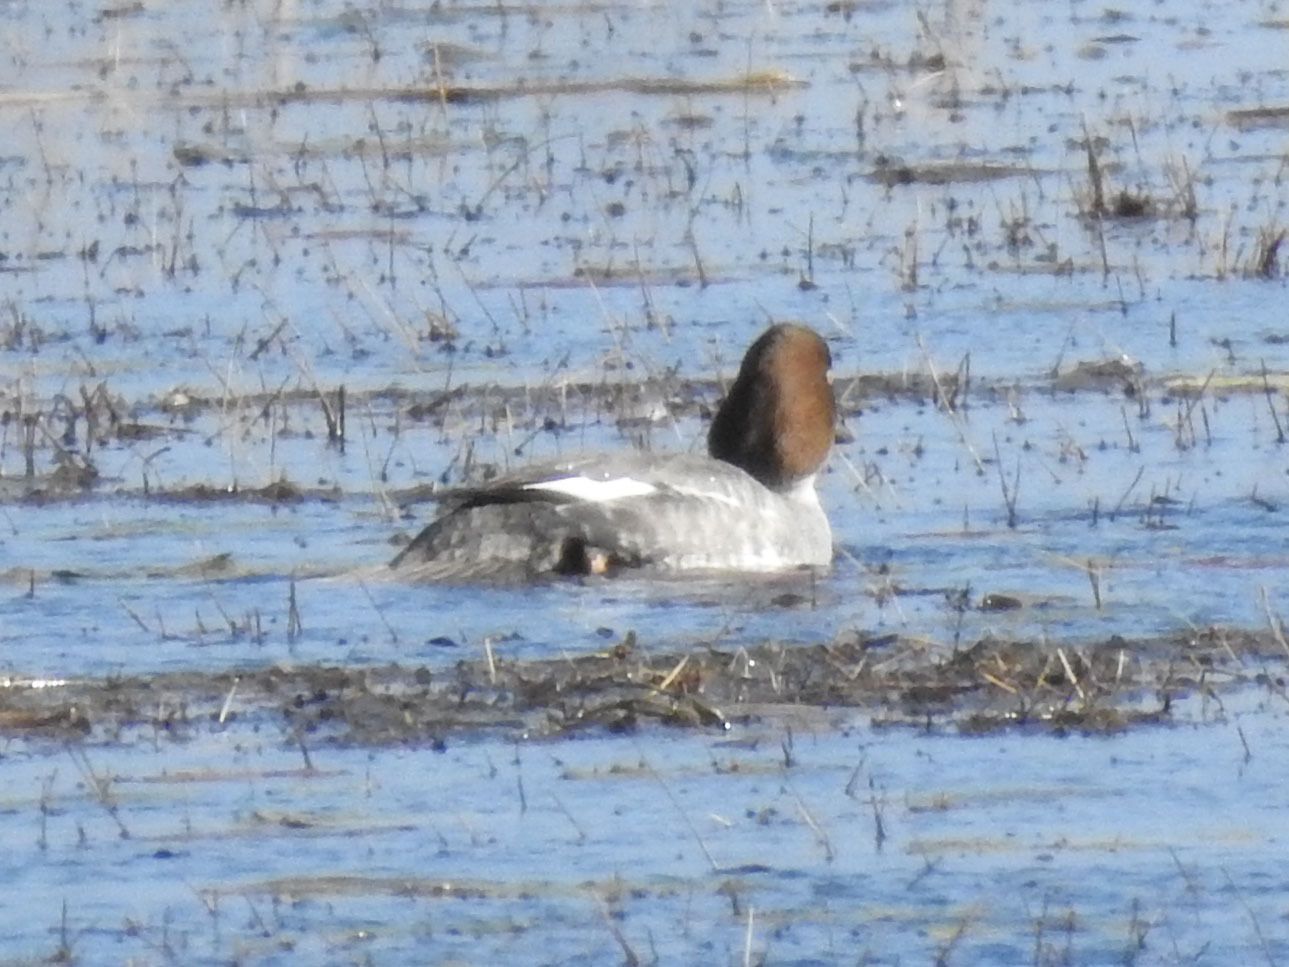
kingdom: Animalia
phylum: Chordata
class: Aves
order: Anseriformes
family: Anatidae
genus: Bucephala
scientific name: Bucephala clangula
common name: Common goldeneye
